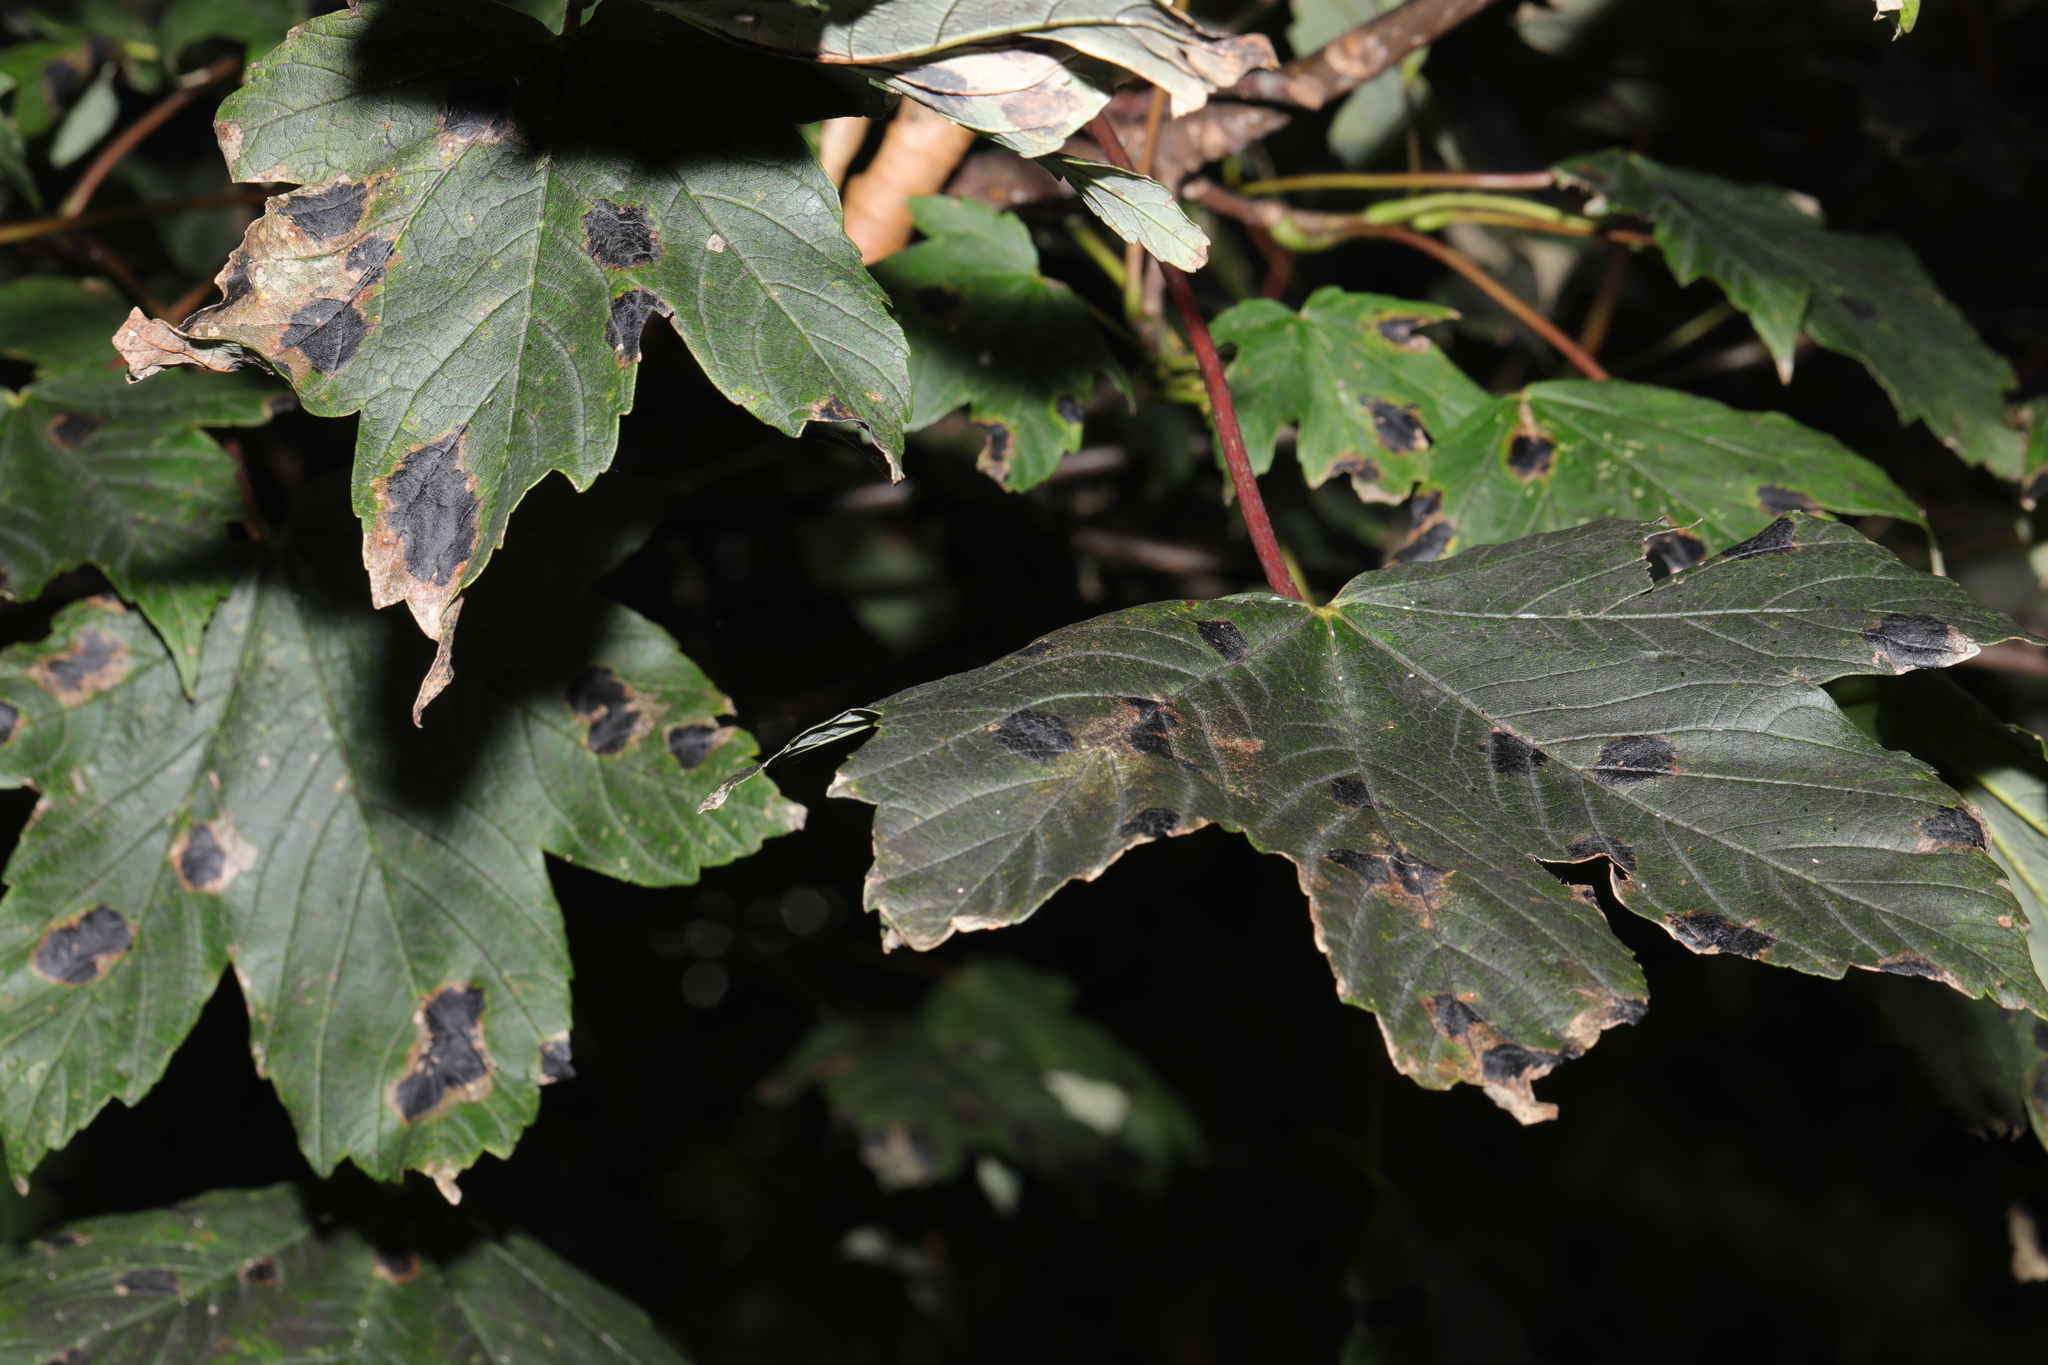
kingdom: Plantae
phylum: Tracheophyta
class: Magnoliopsida
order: Sapindales
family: Sapindaceae
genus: Acer
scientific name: Acer pseudoplatanus
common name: Sycamore
